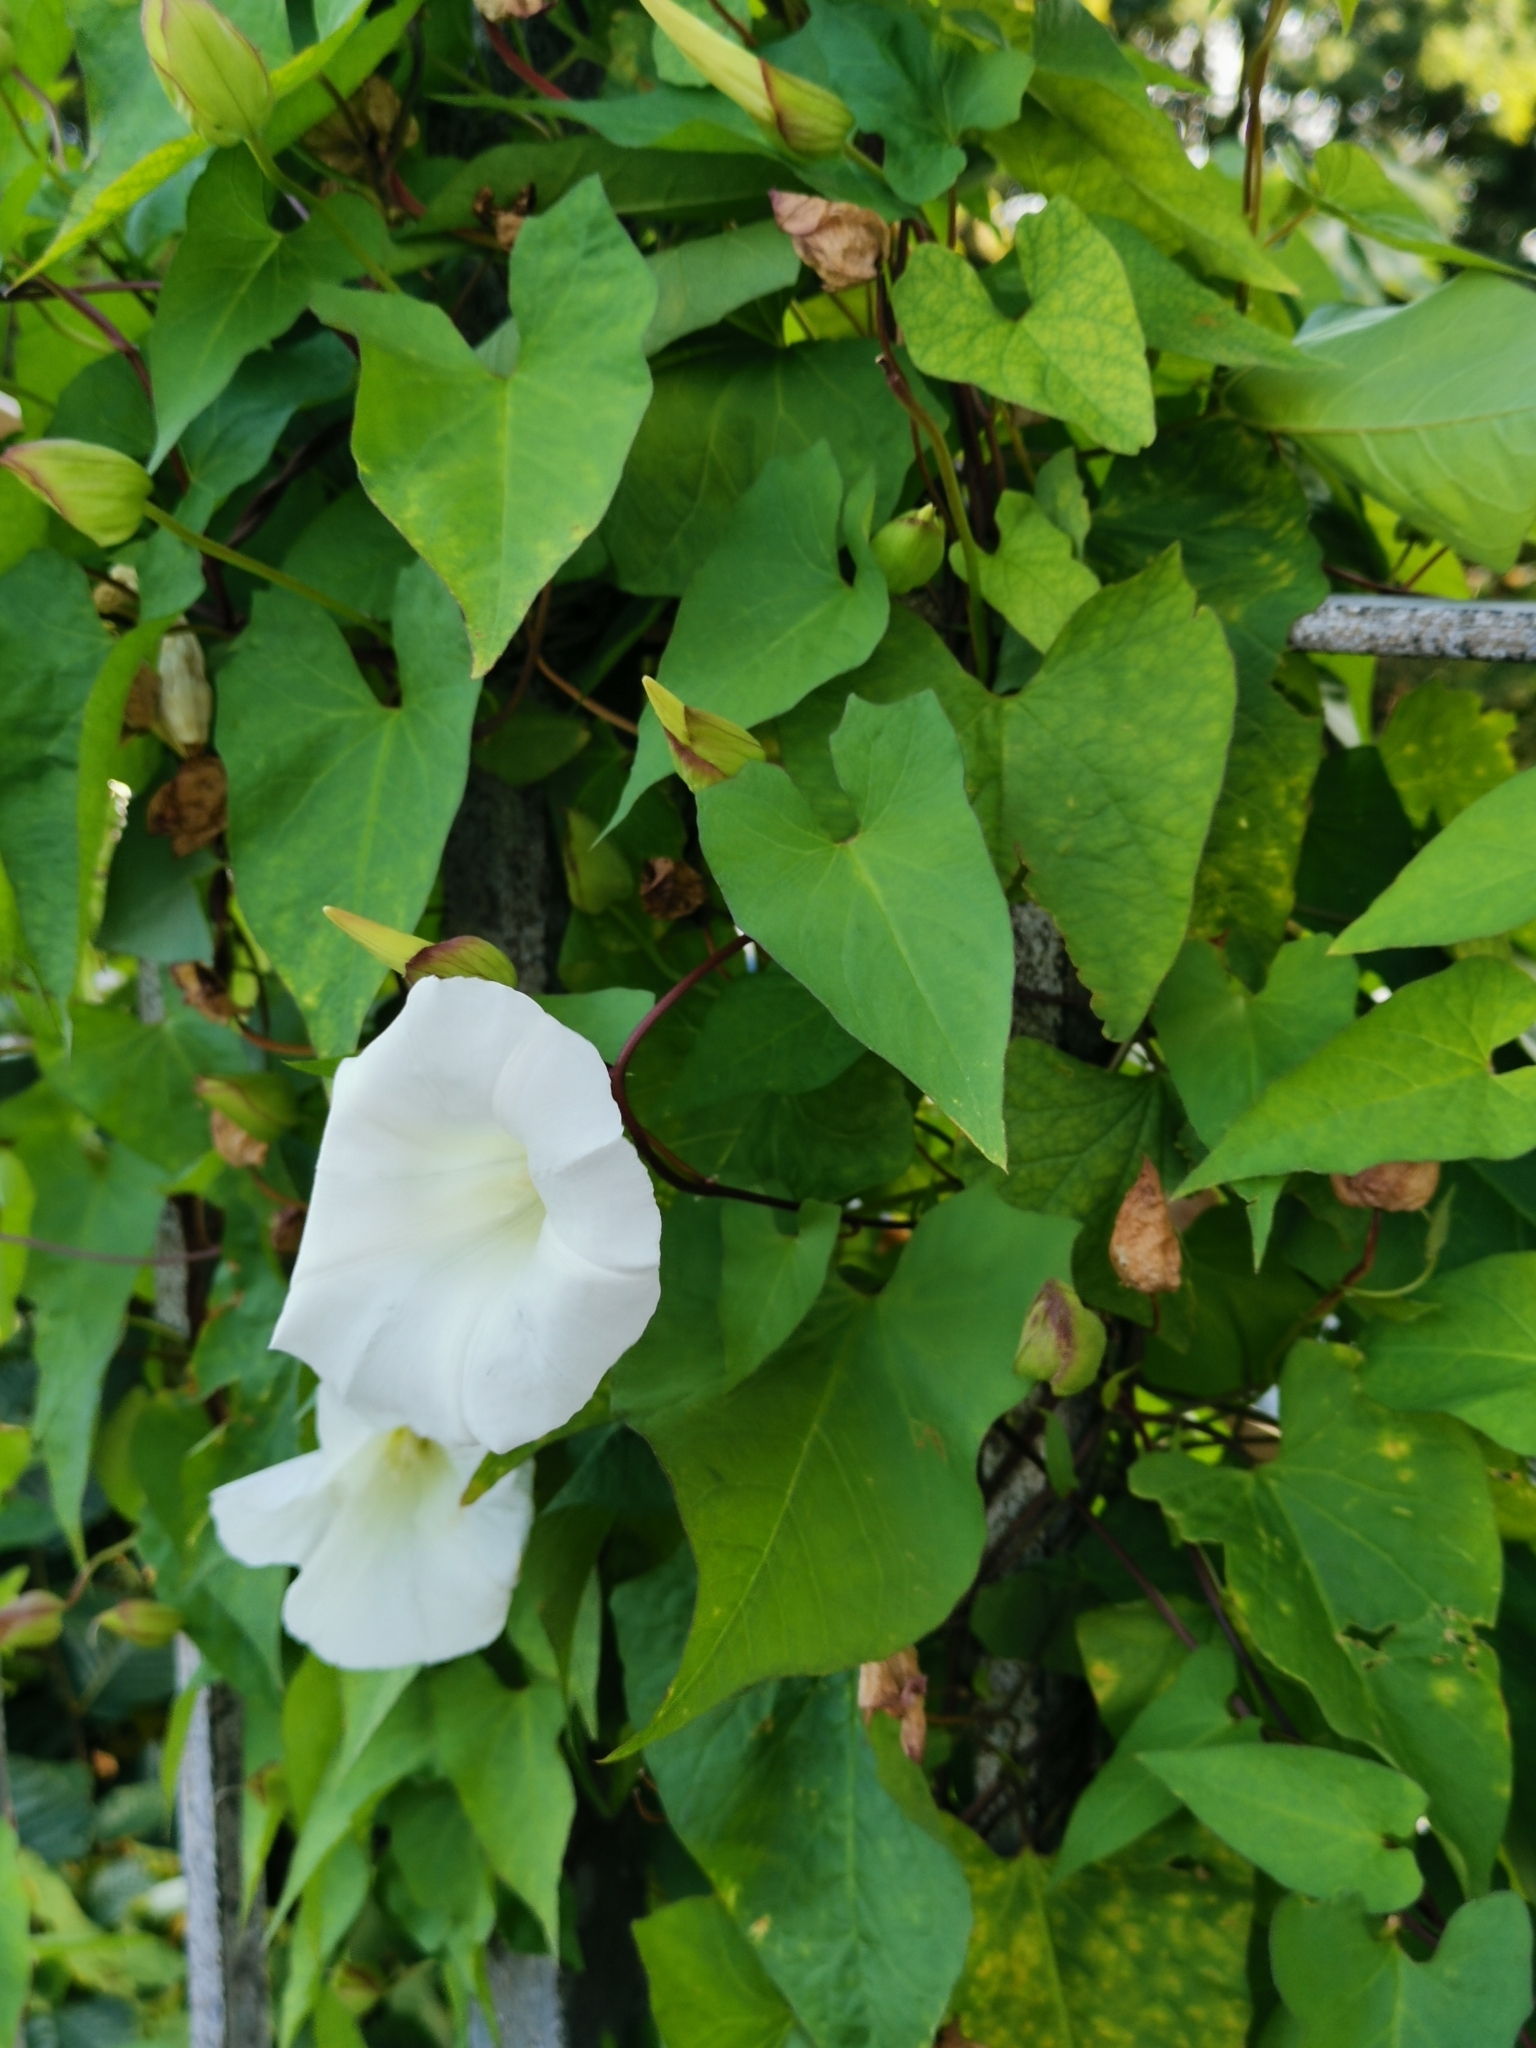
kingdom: Plantae
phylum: Tracheophyta
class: Magnoliopsida
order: Solanales
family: Convolvulaceae
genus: Calystegia
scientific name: Calystegia silvatica
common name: Large bindweed
